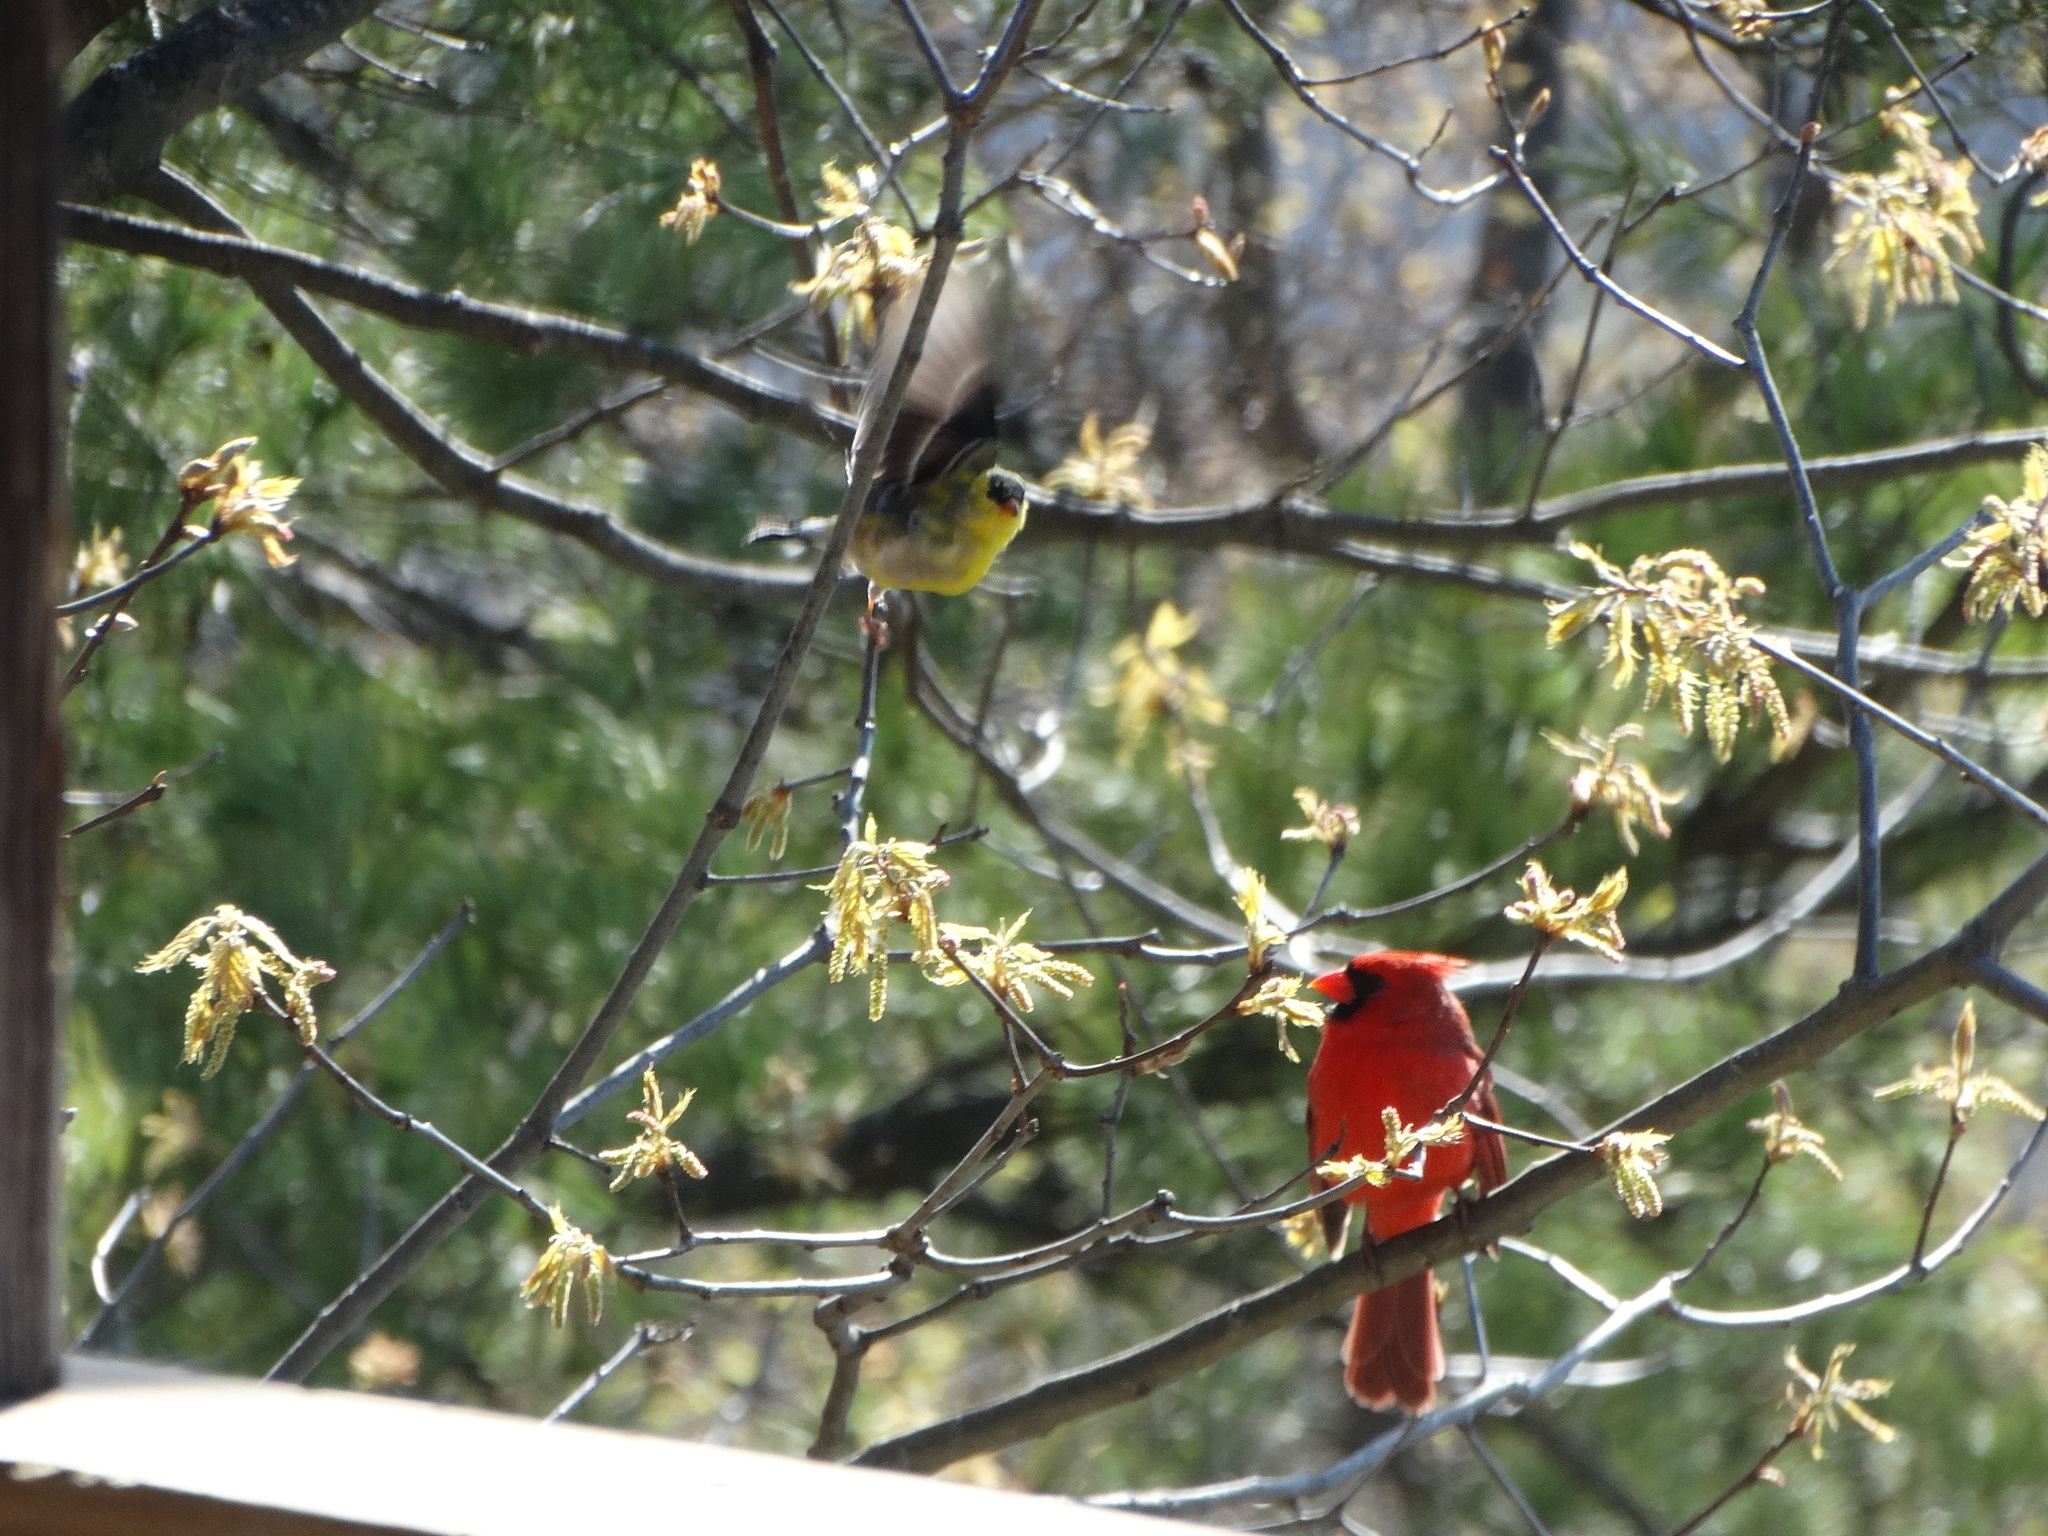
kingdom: Animalia
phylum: Chordata
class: Aves
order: Passeriformes
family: Cardinalidae
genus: Cardinalis
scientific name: Cardinalis cardinalis
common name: Northern cardinal
